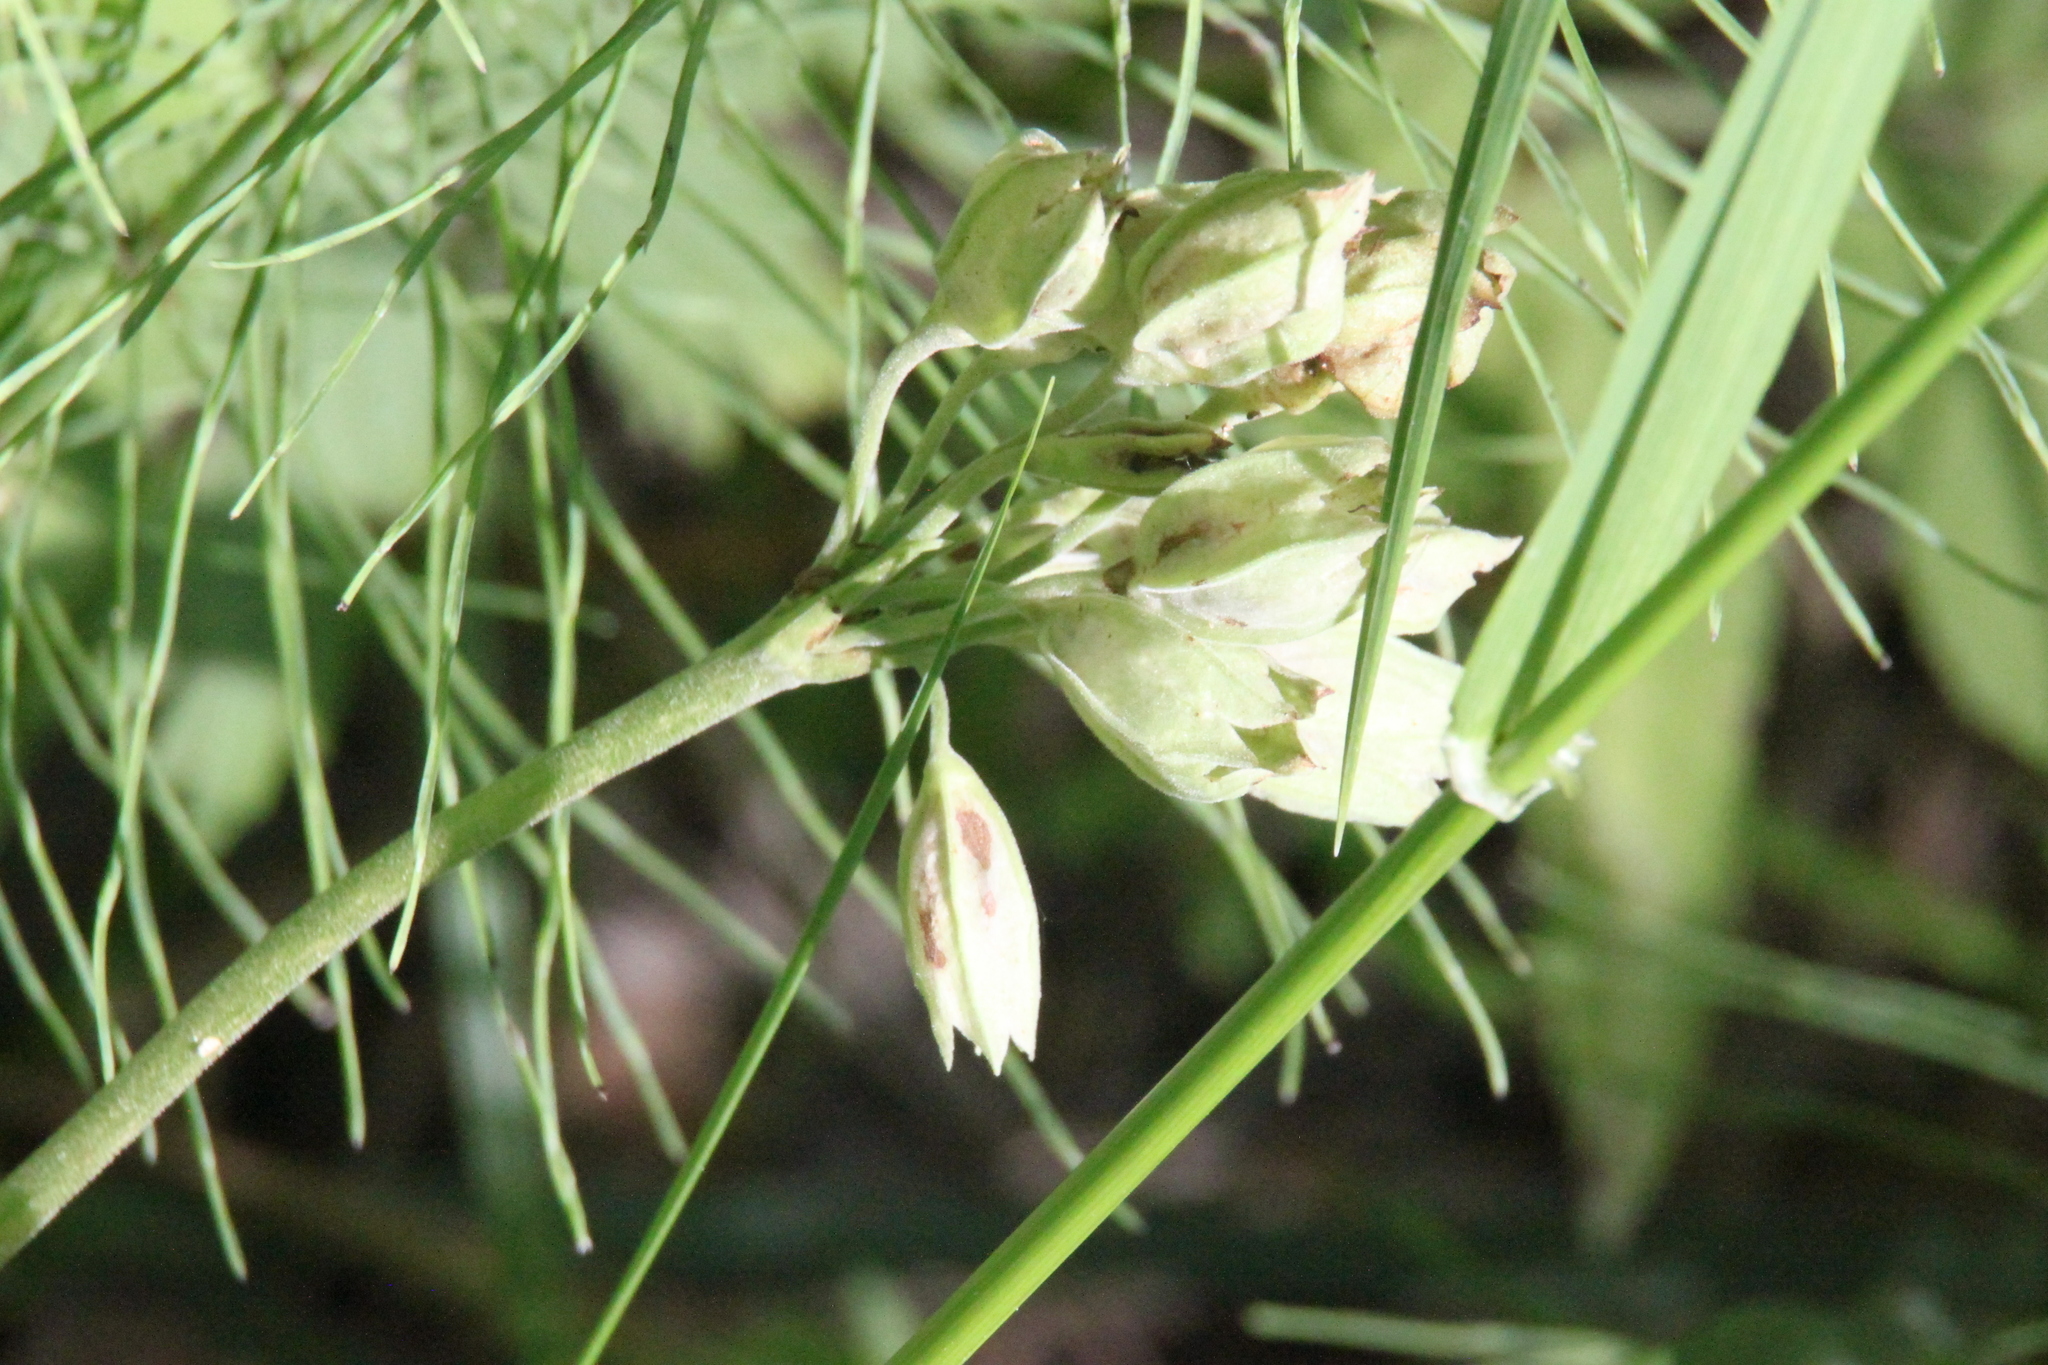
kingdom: Plantae
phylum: Tracheophyta
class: Magnoliopsida
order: Ericales
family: Primulaceae
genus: Primula
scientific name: Primula veris
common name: Cowslip
